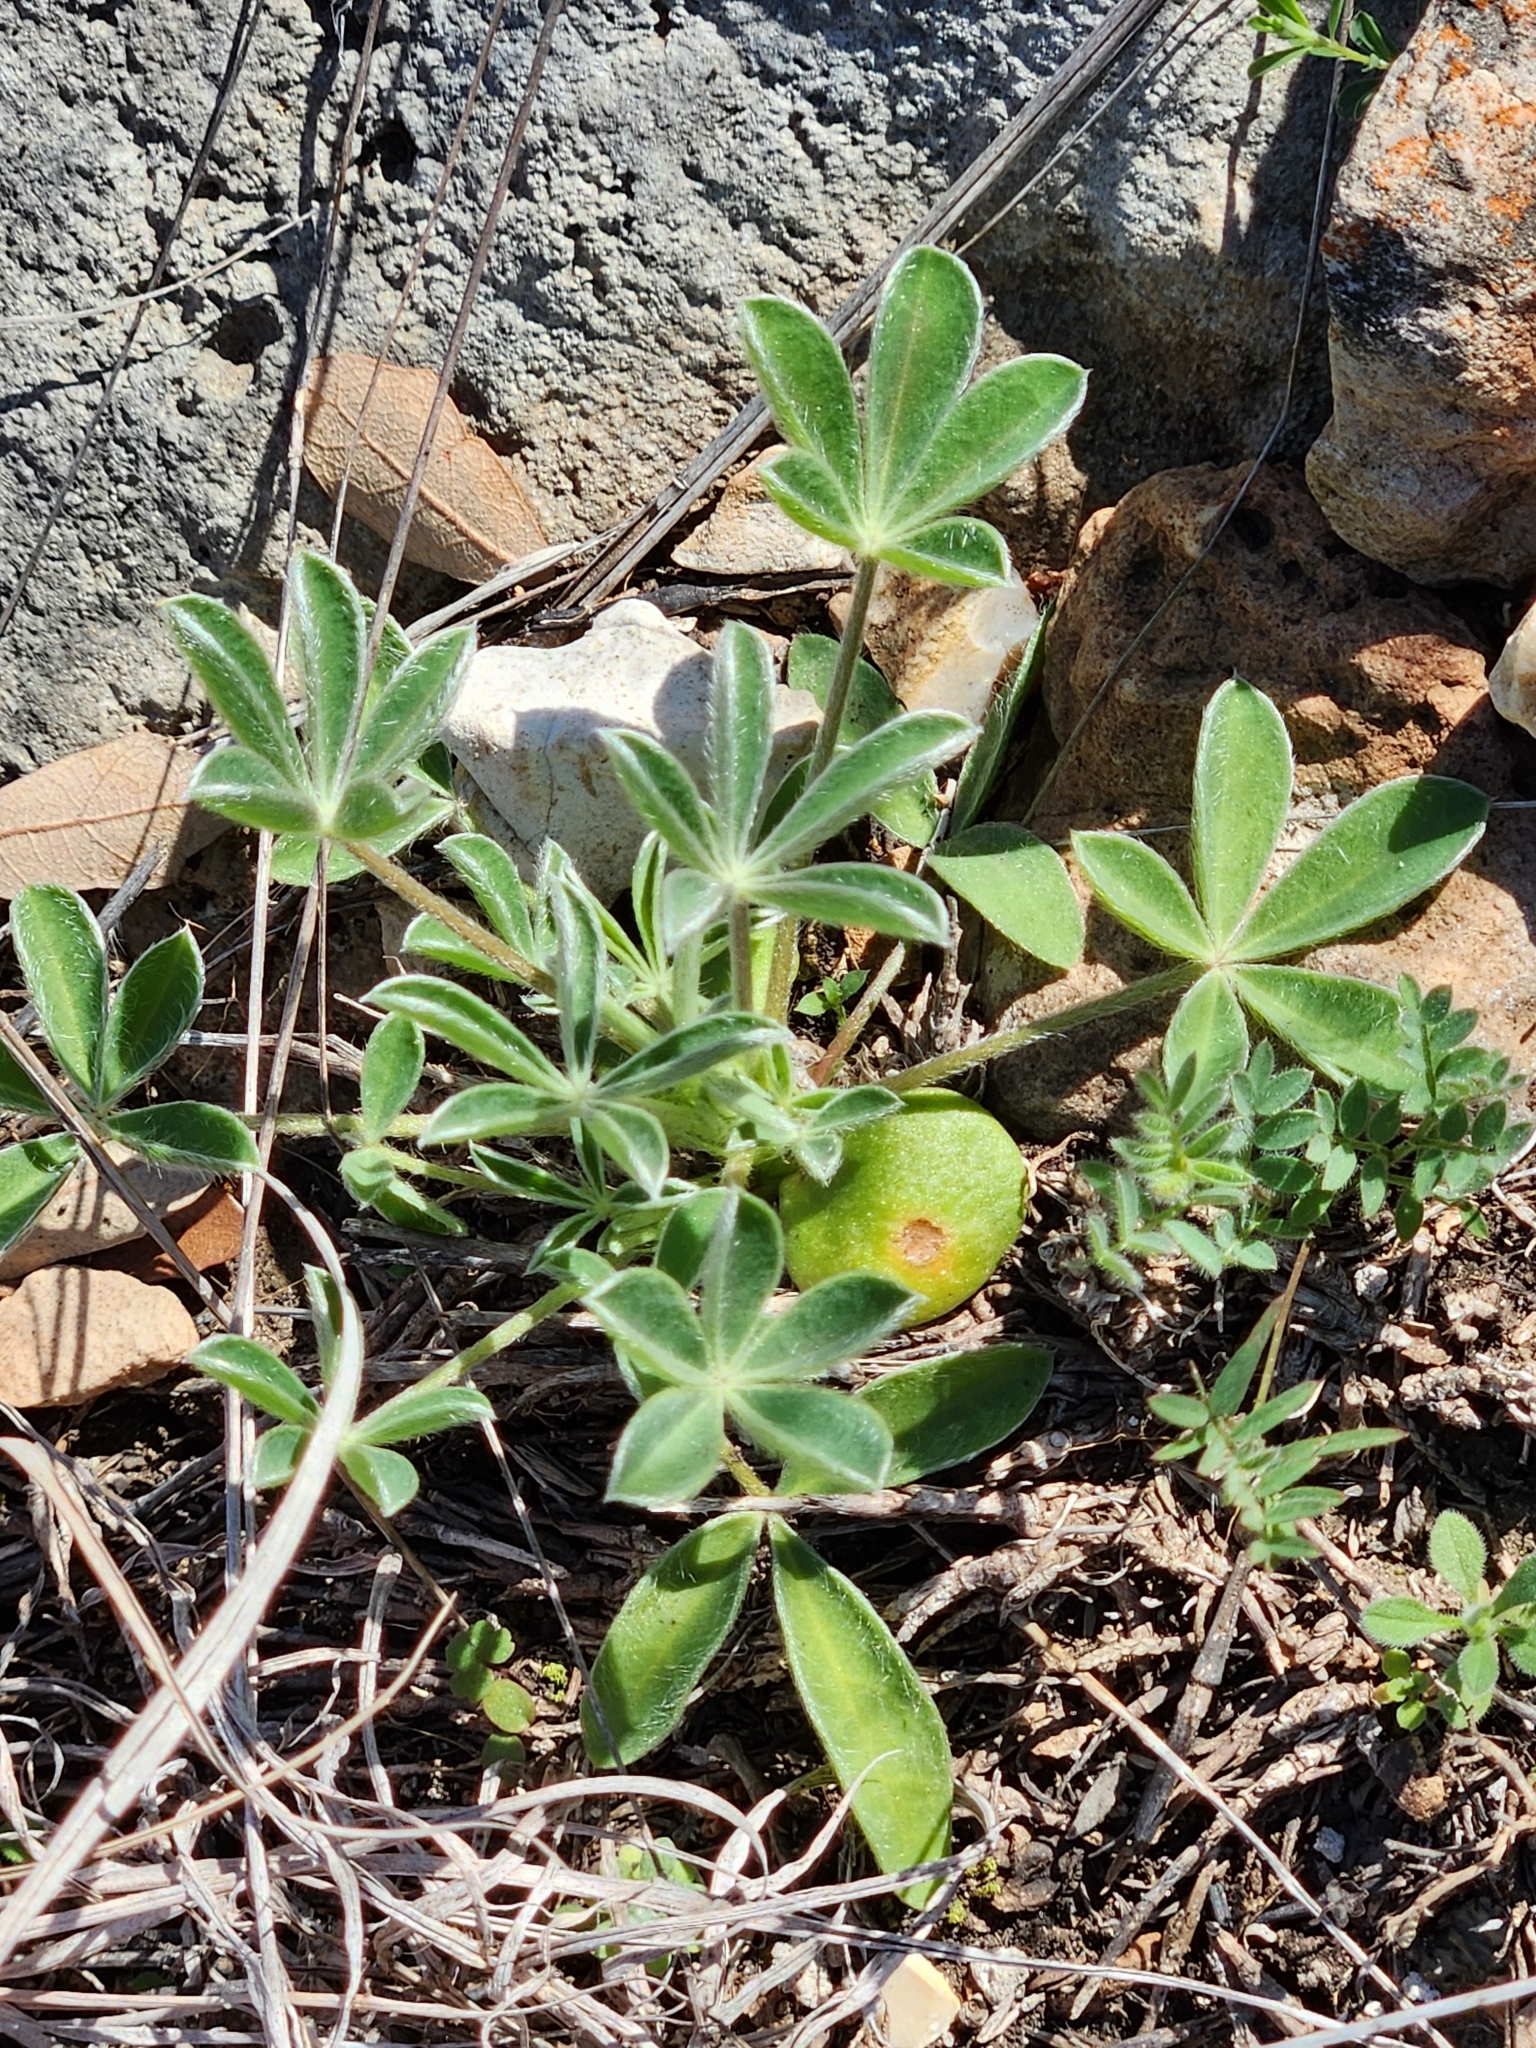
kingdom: Plantae
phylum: Tracheophyta
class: Magnoliopsida
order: Fabales
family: Fabaceae
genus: Lupinus
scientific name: Lupinus texensis
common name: Texas bluebonnet
